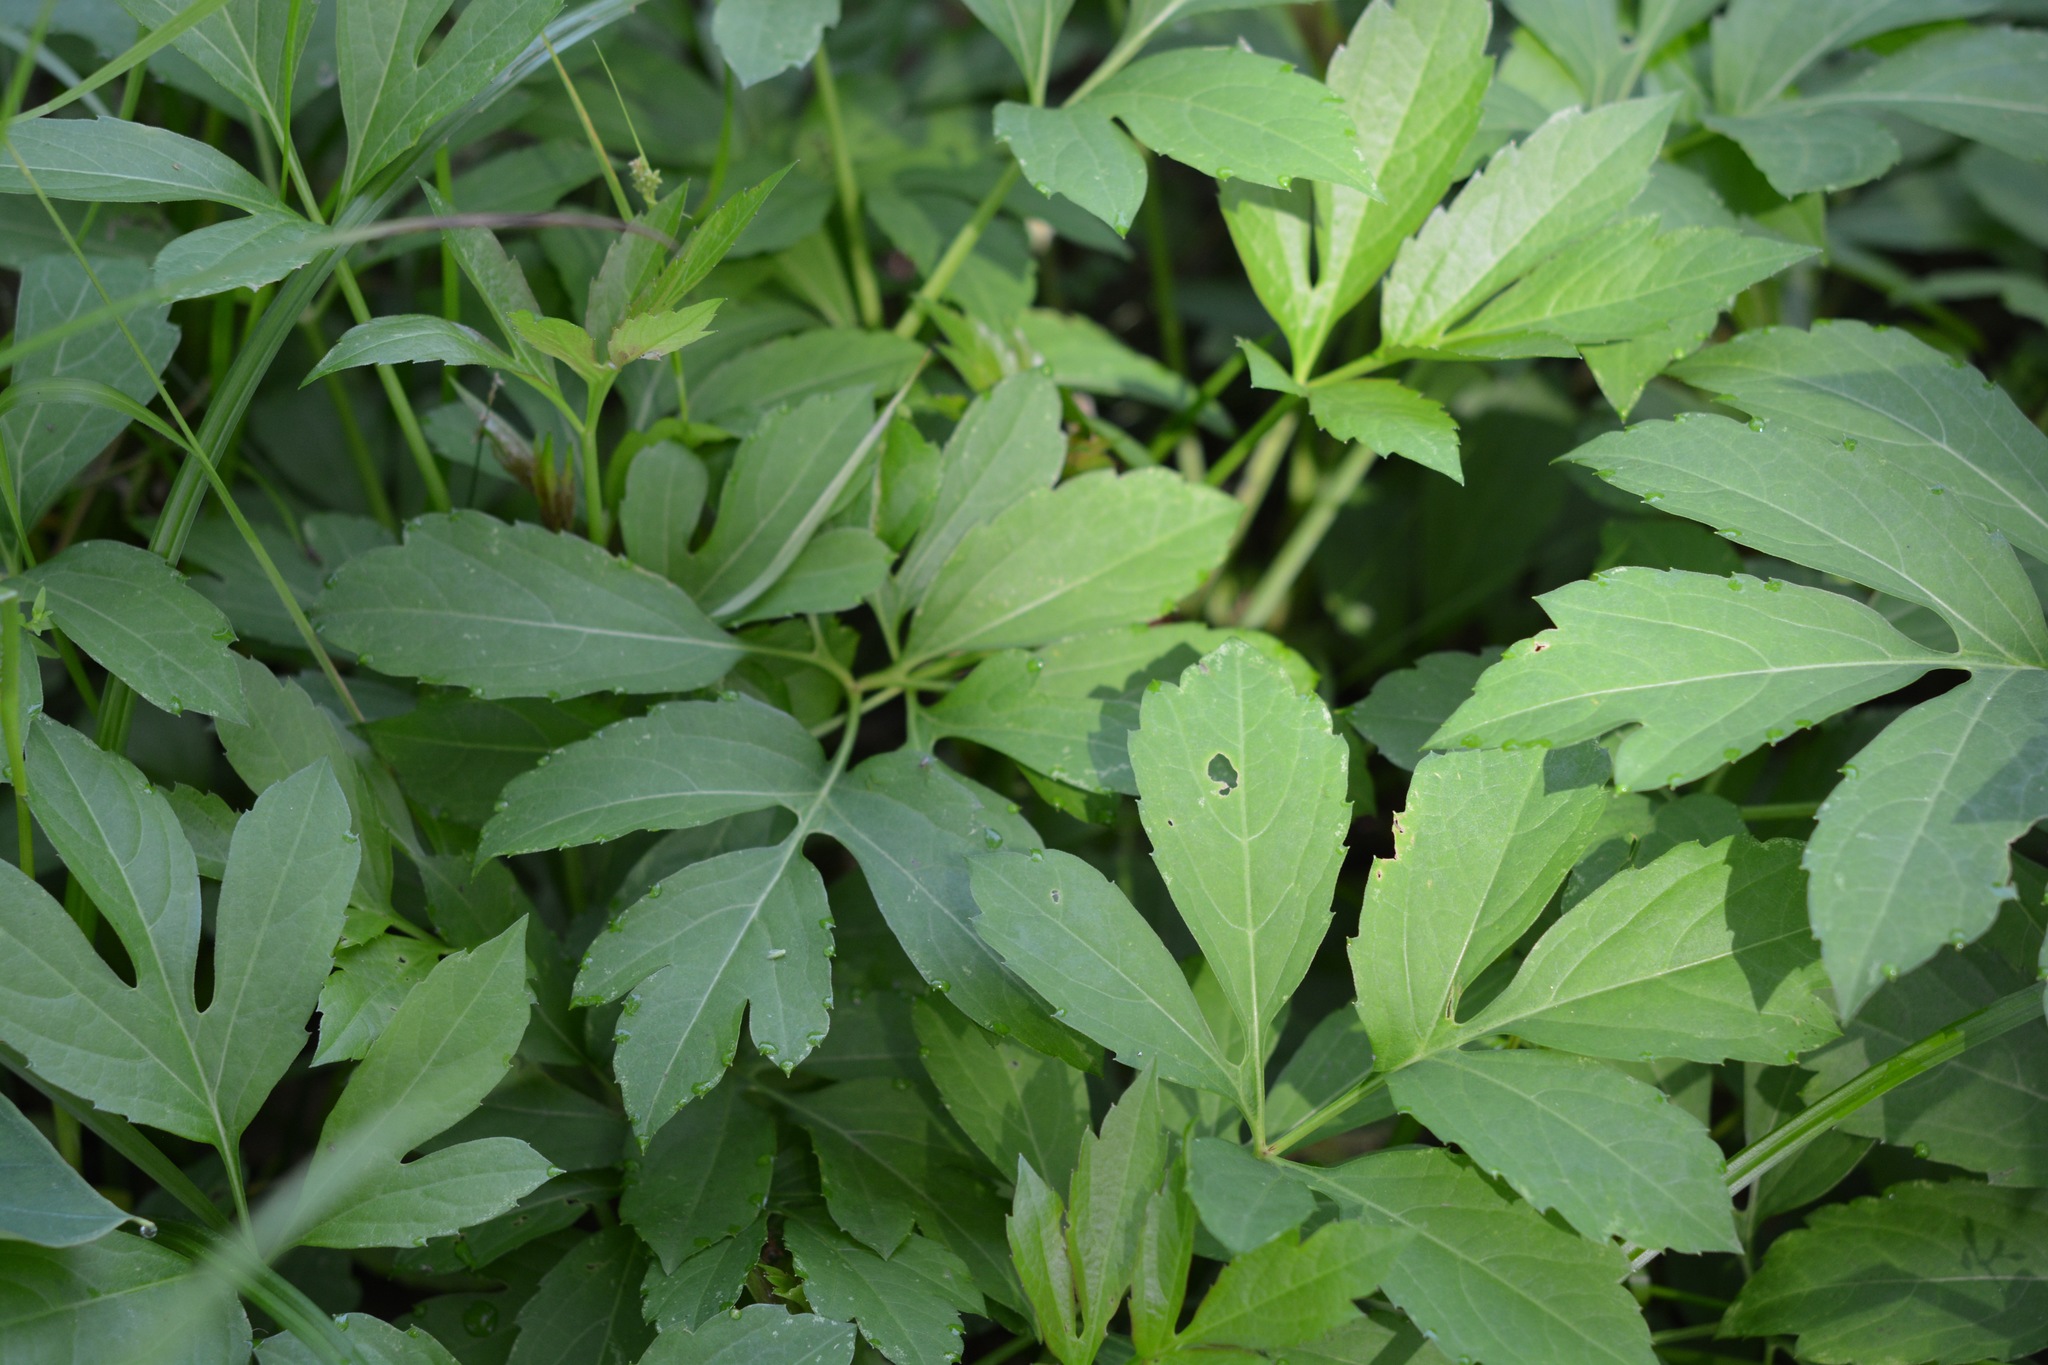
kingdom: Plantae
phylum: Tracheophyta
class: Magnoliopsida
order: Asterales
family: Asteraceae
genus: Rudbeckia
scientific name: Rudbeckia laciniata
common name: Coneflower
